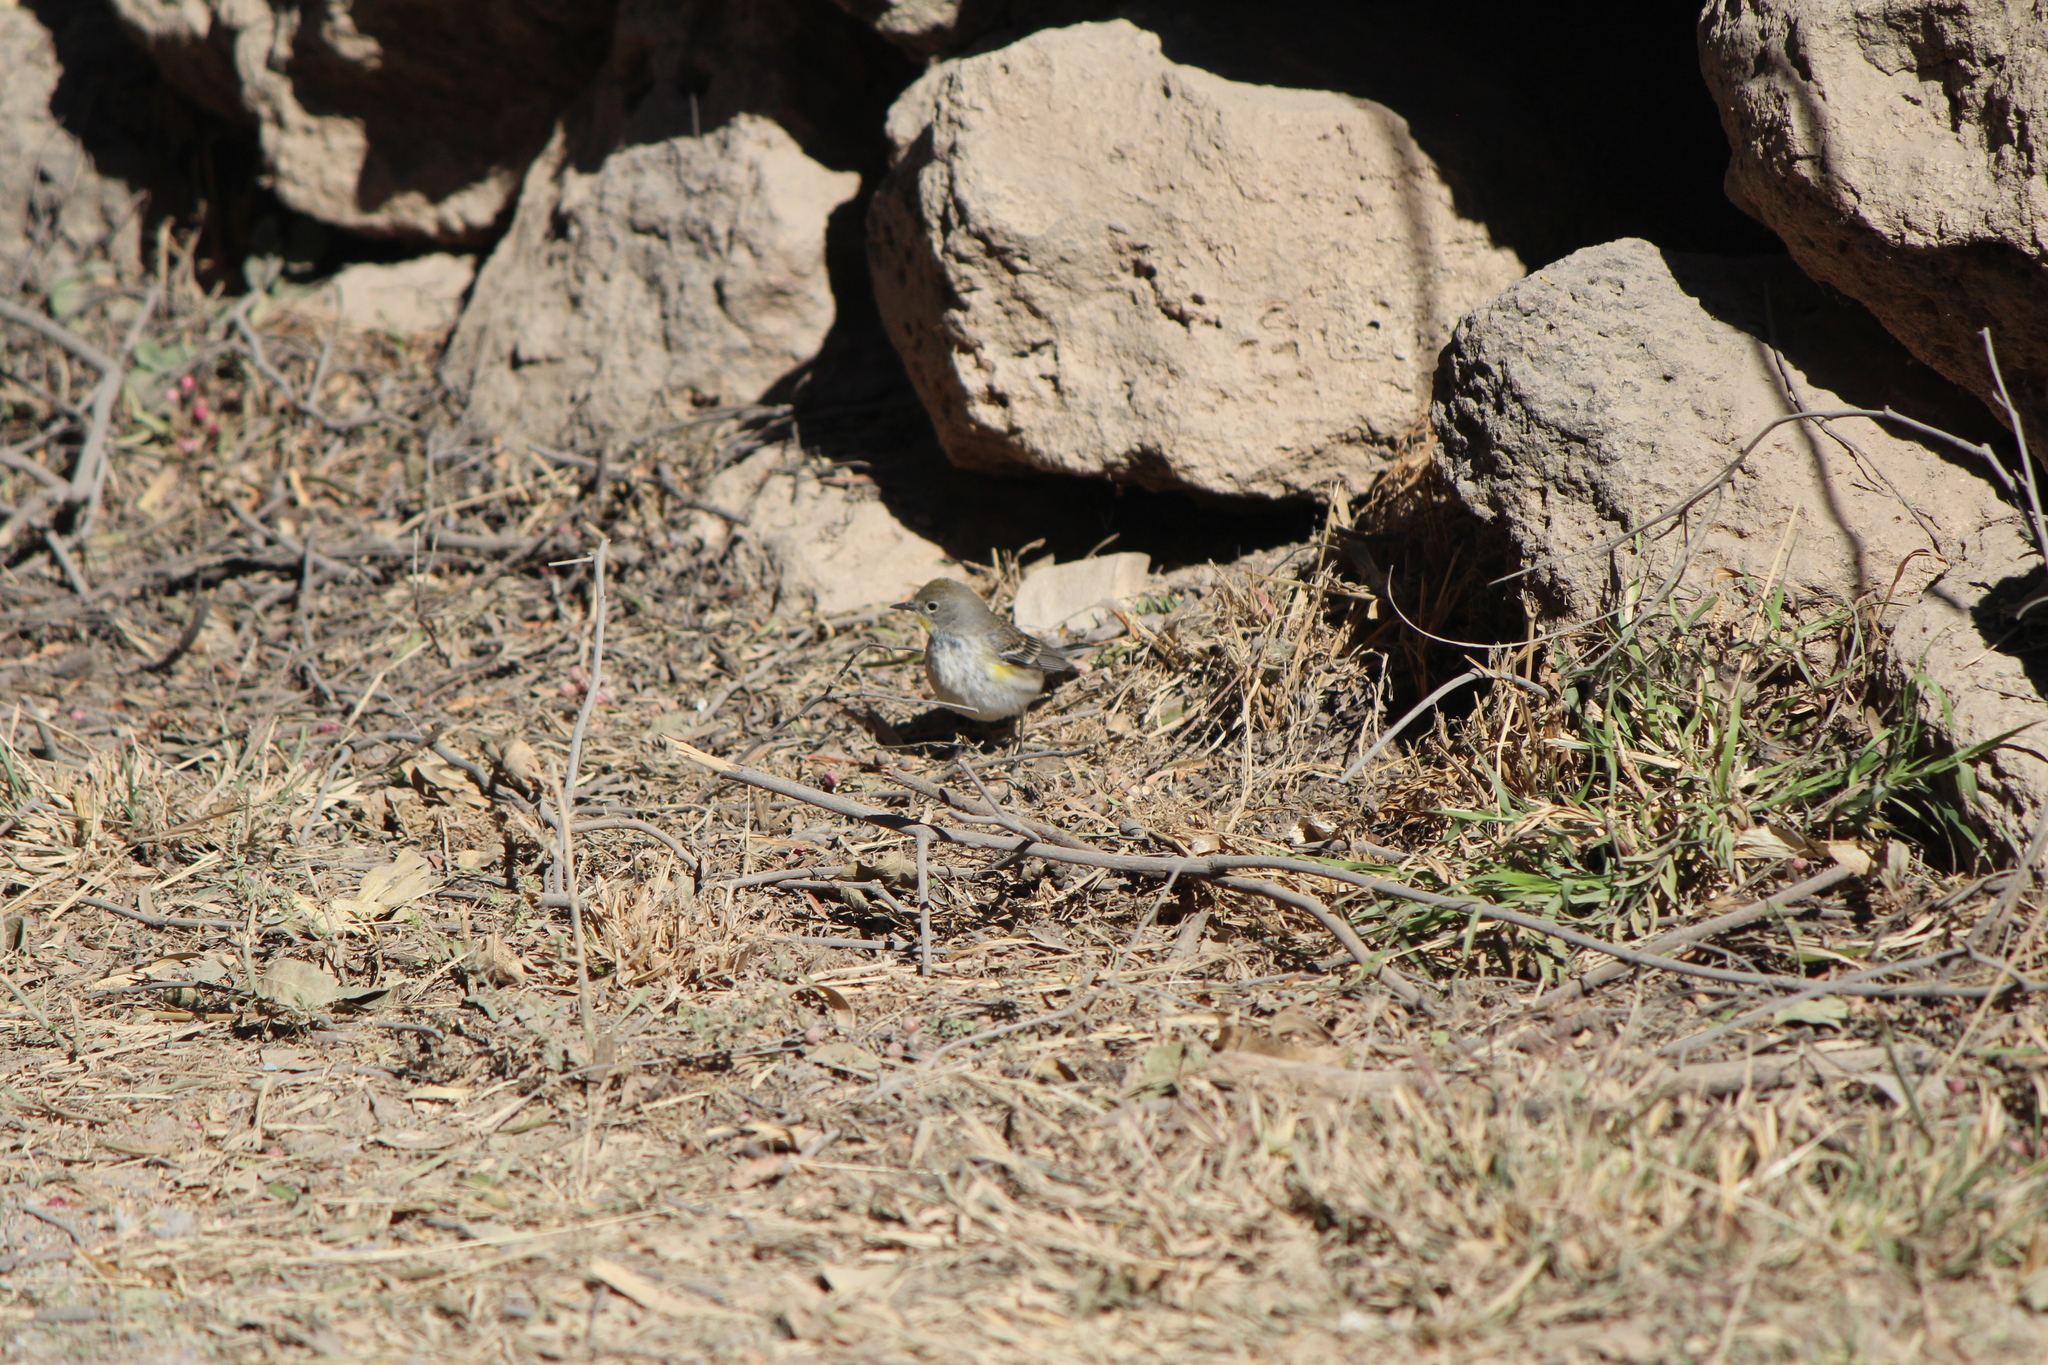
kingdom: Animalia
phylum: Chordata
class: Aves
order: Passeriformes
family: Parulidae
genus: Setophaga
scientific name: Setophaga auduboni
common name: Audubon's warbler
